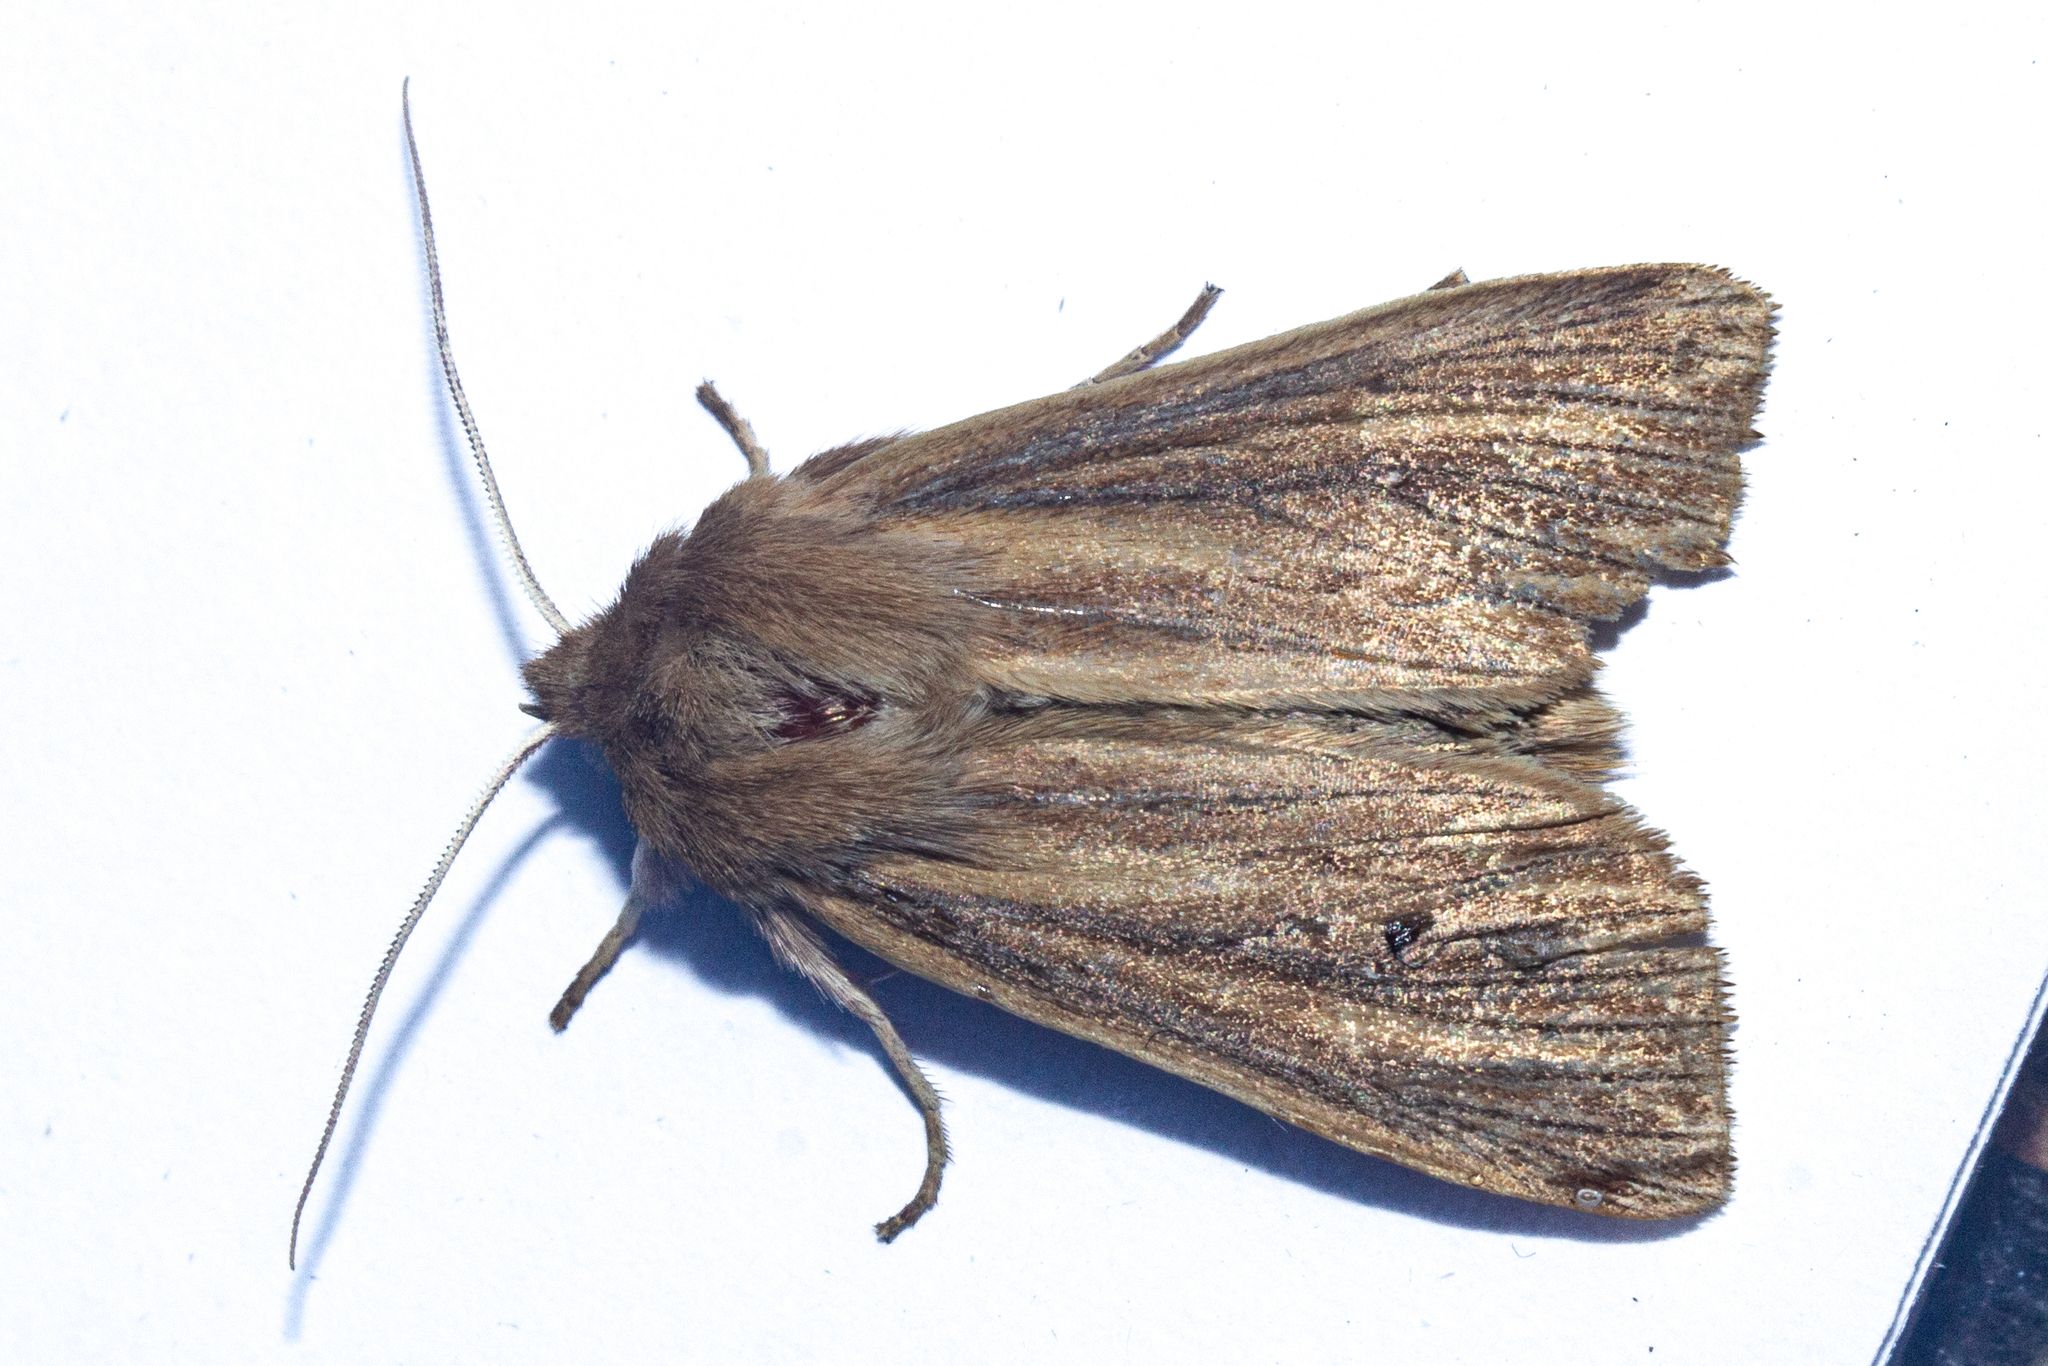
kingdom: Animalia
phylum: Arthropoda
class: Insecta
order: Lepidoptera
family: Noctuidae
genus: Ichneutica
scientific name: Ichneutica arotis
